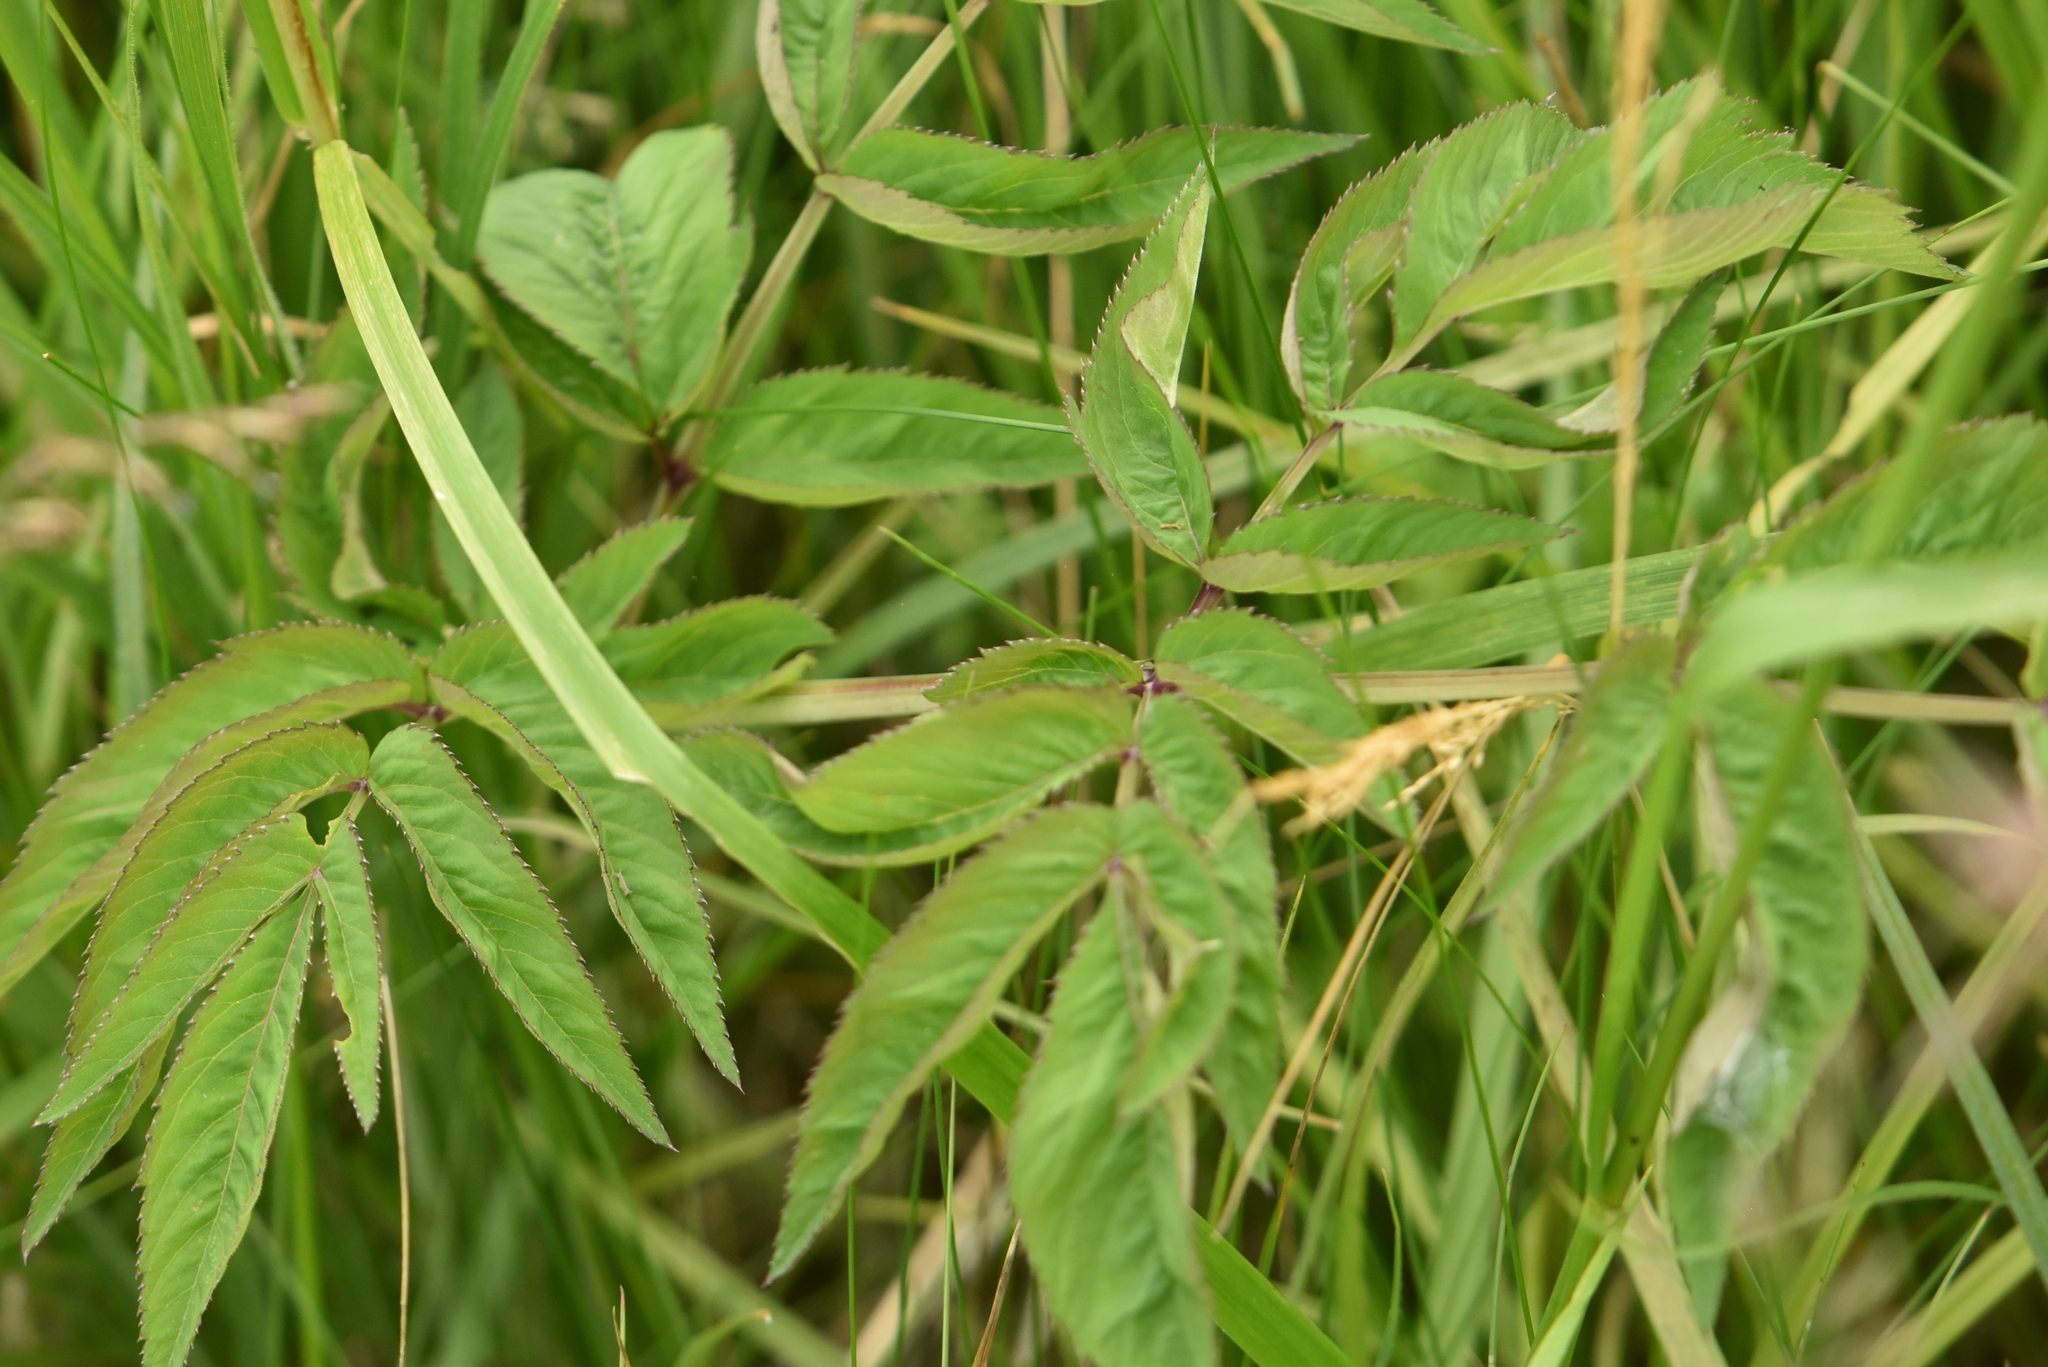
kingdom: Plantae
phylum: Tracheophyta
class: Magnoliopsida
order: Apiales
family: Apiaceae
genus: Angelica
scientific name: Angelica sylvestris
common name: Wild angelica
